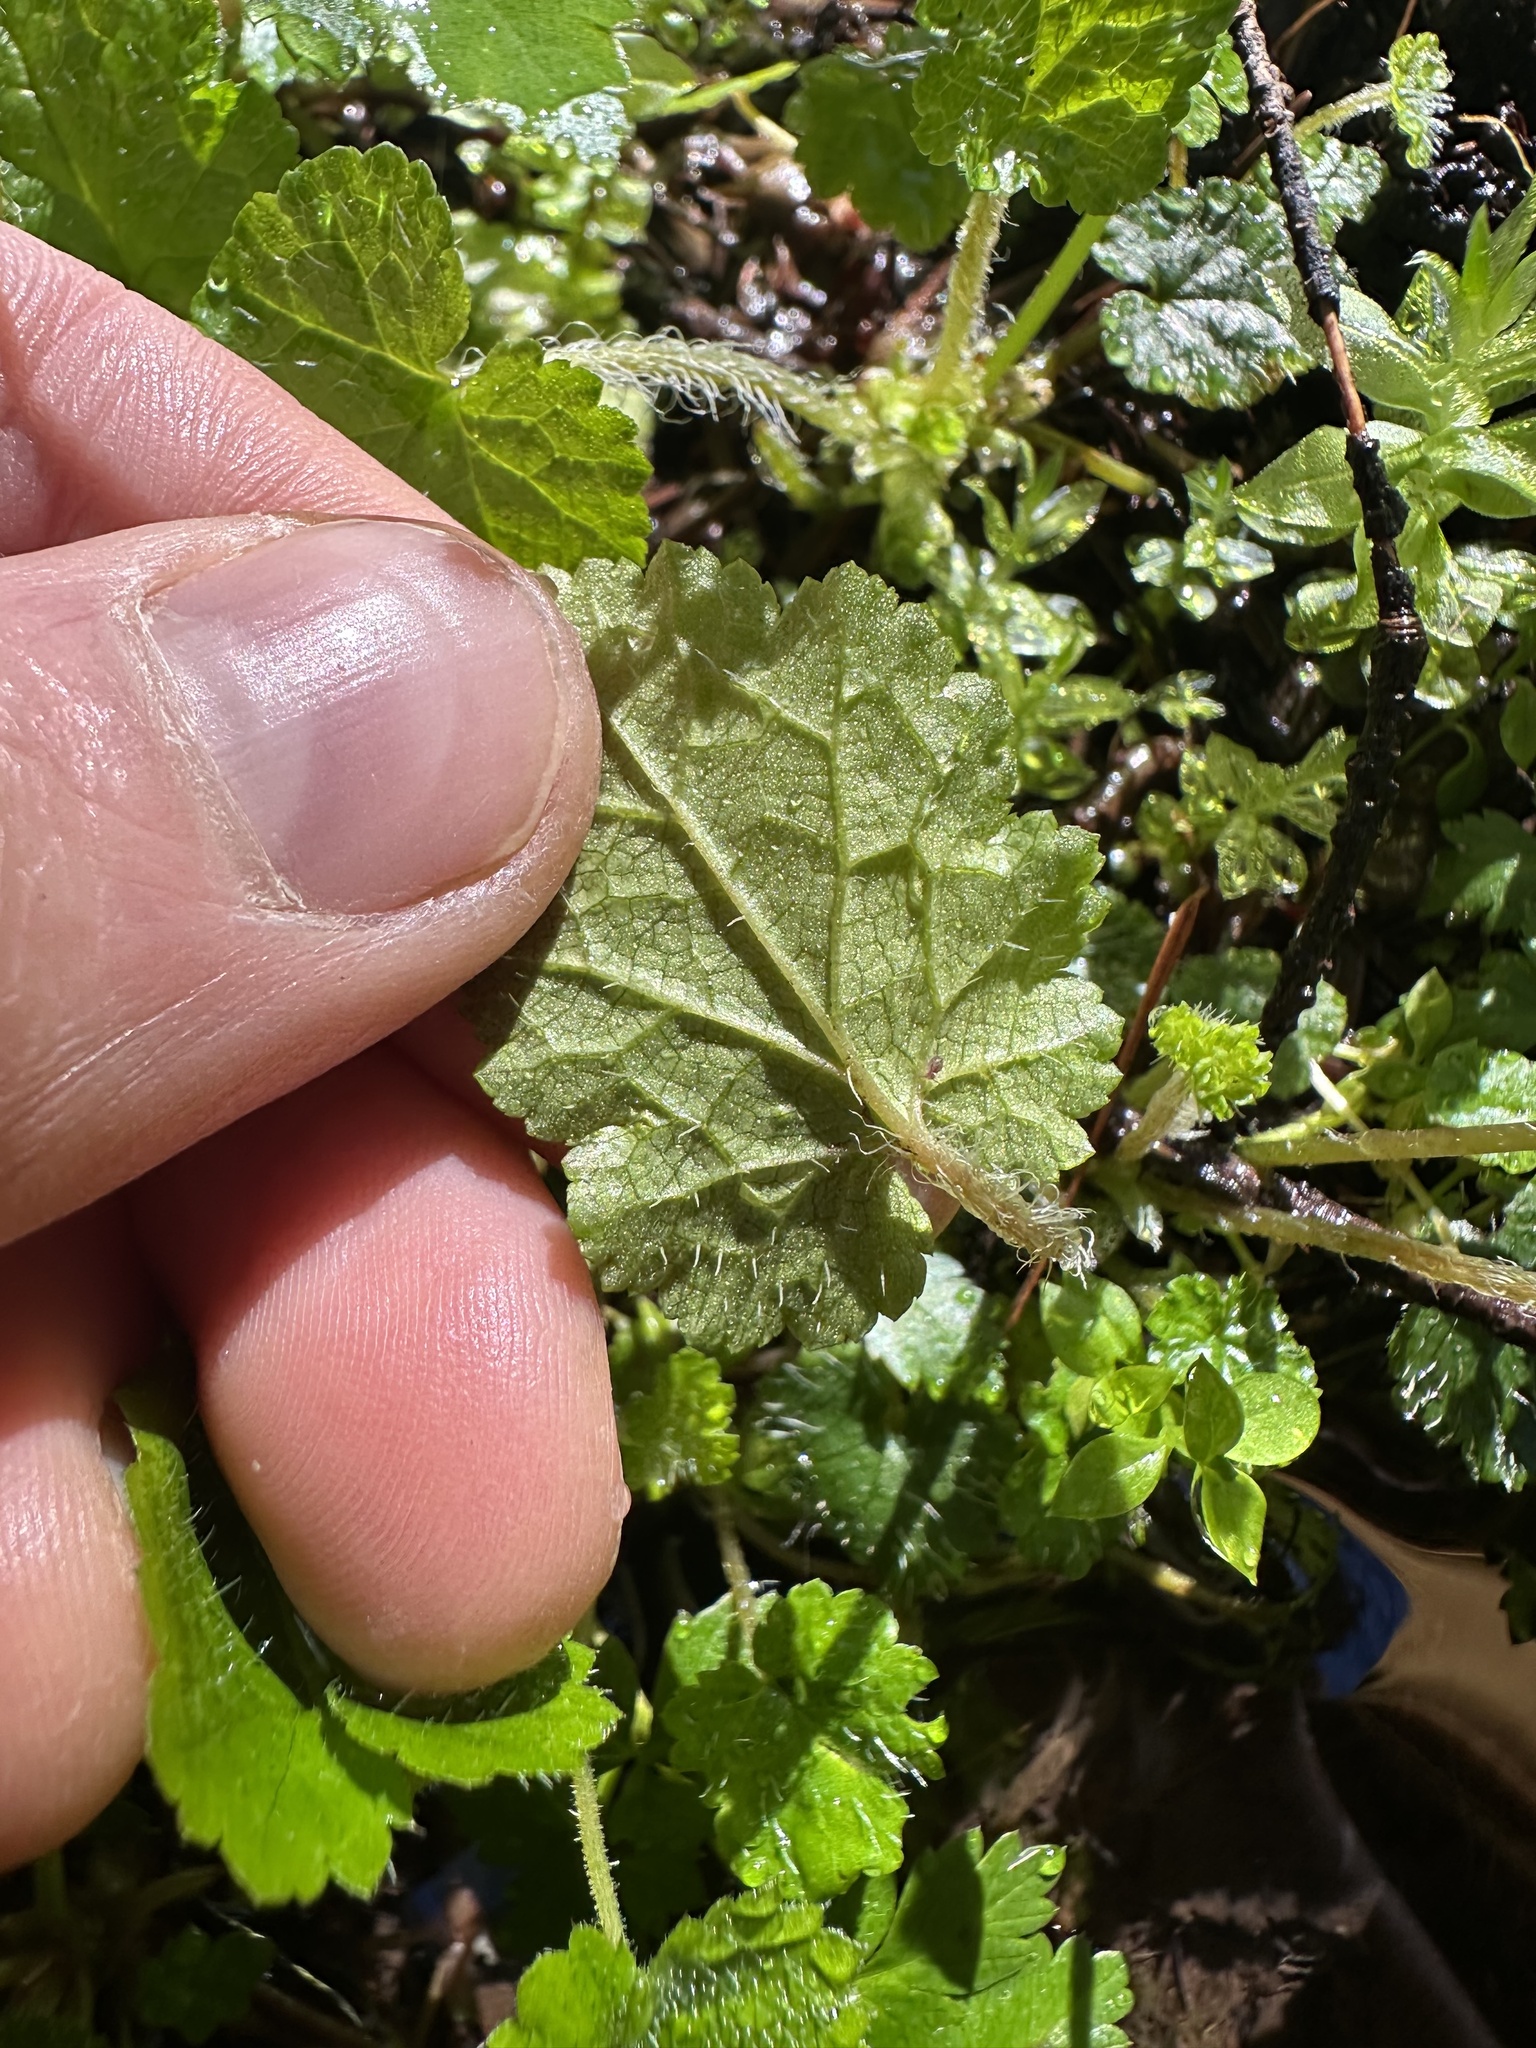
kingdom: Plantae
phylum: Tracheophyta
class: Magnoliopsida
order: Saxifragales
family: Saxifragaceae
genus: Brewerimitella
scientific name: Brewerimitella ovalis
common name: Coastal bishop's-cap
